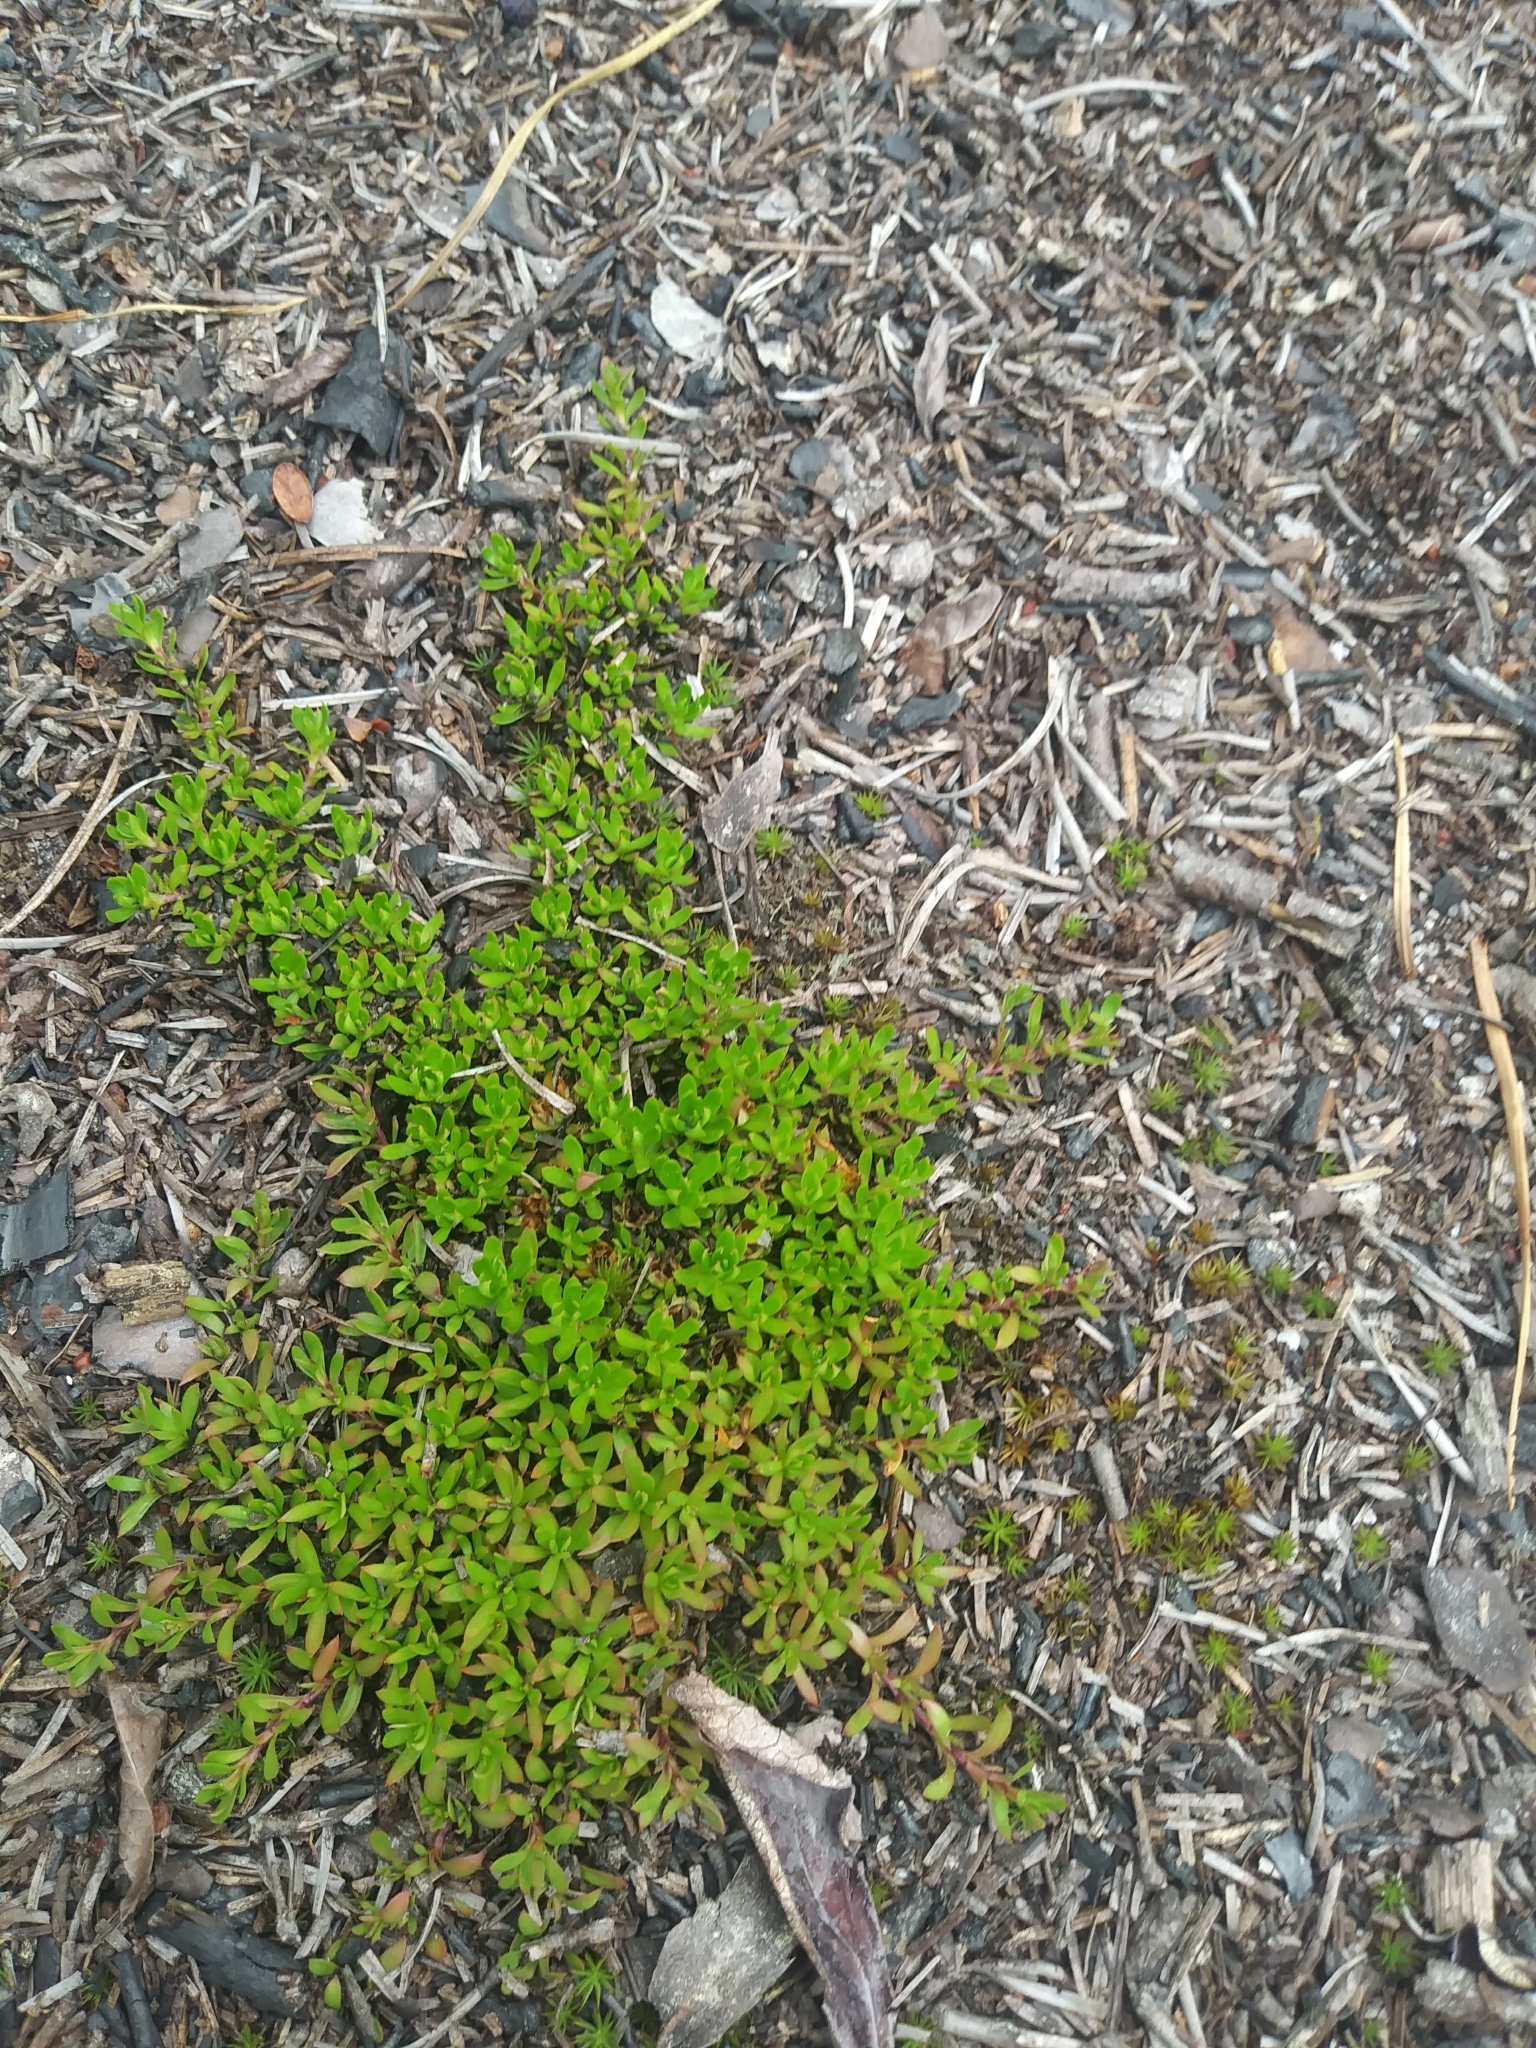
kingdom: Plantae
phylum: Tracheophyta
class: Magnoliopsida
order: Ericales
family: Diapensiaceae
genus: Pyxidanthera
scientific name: Pyxidanthera barbulata
